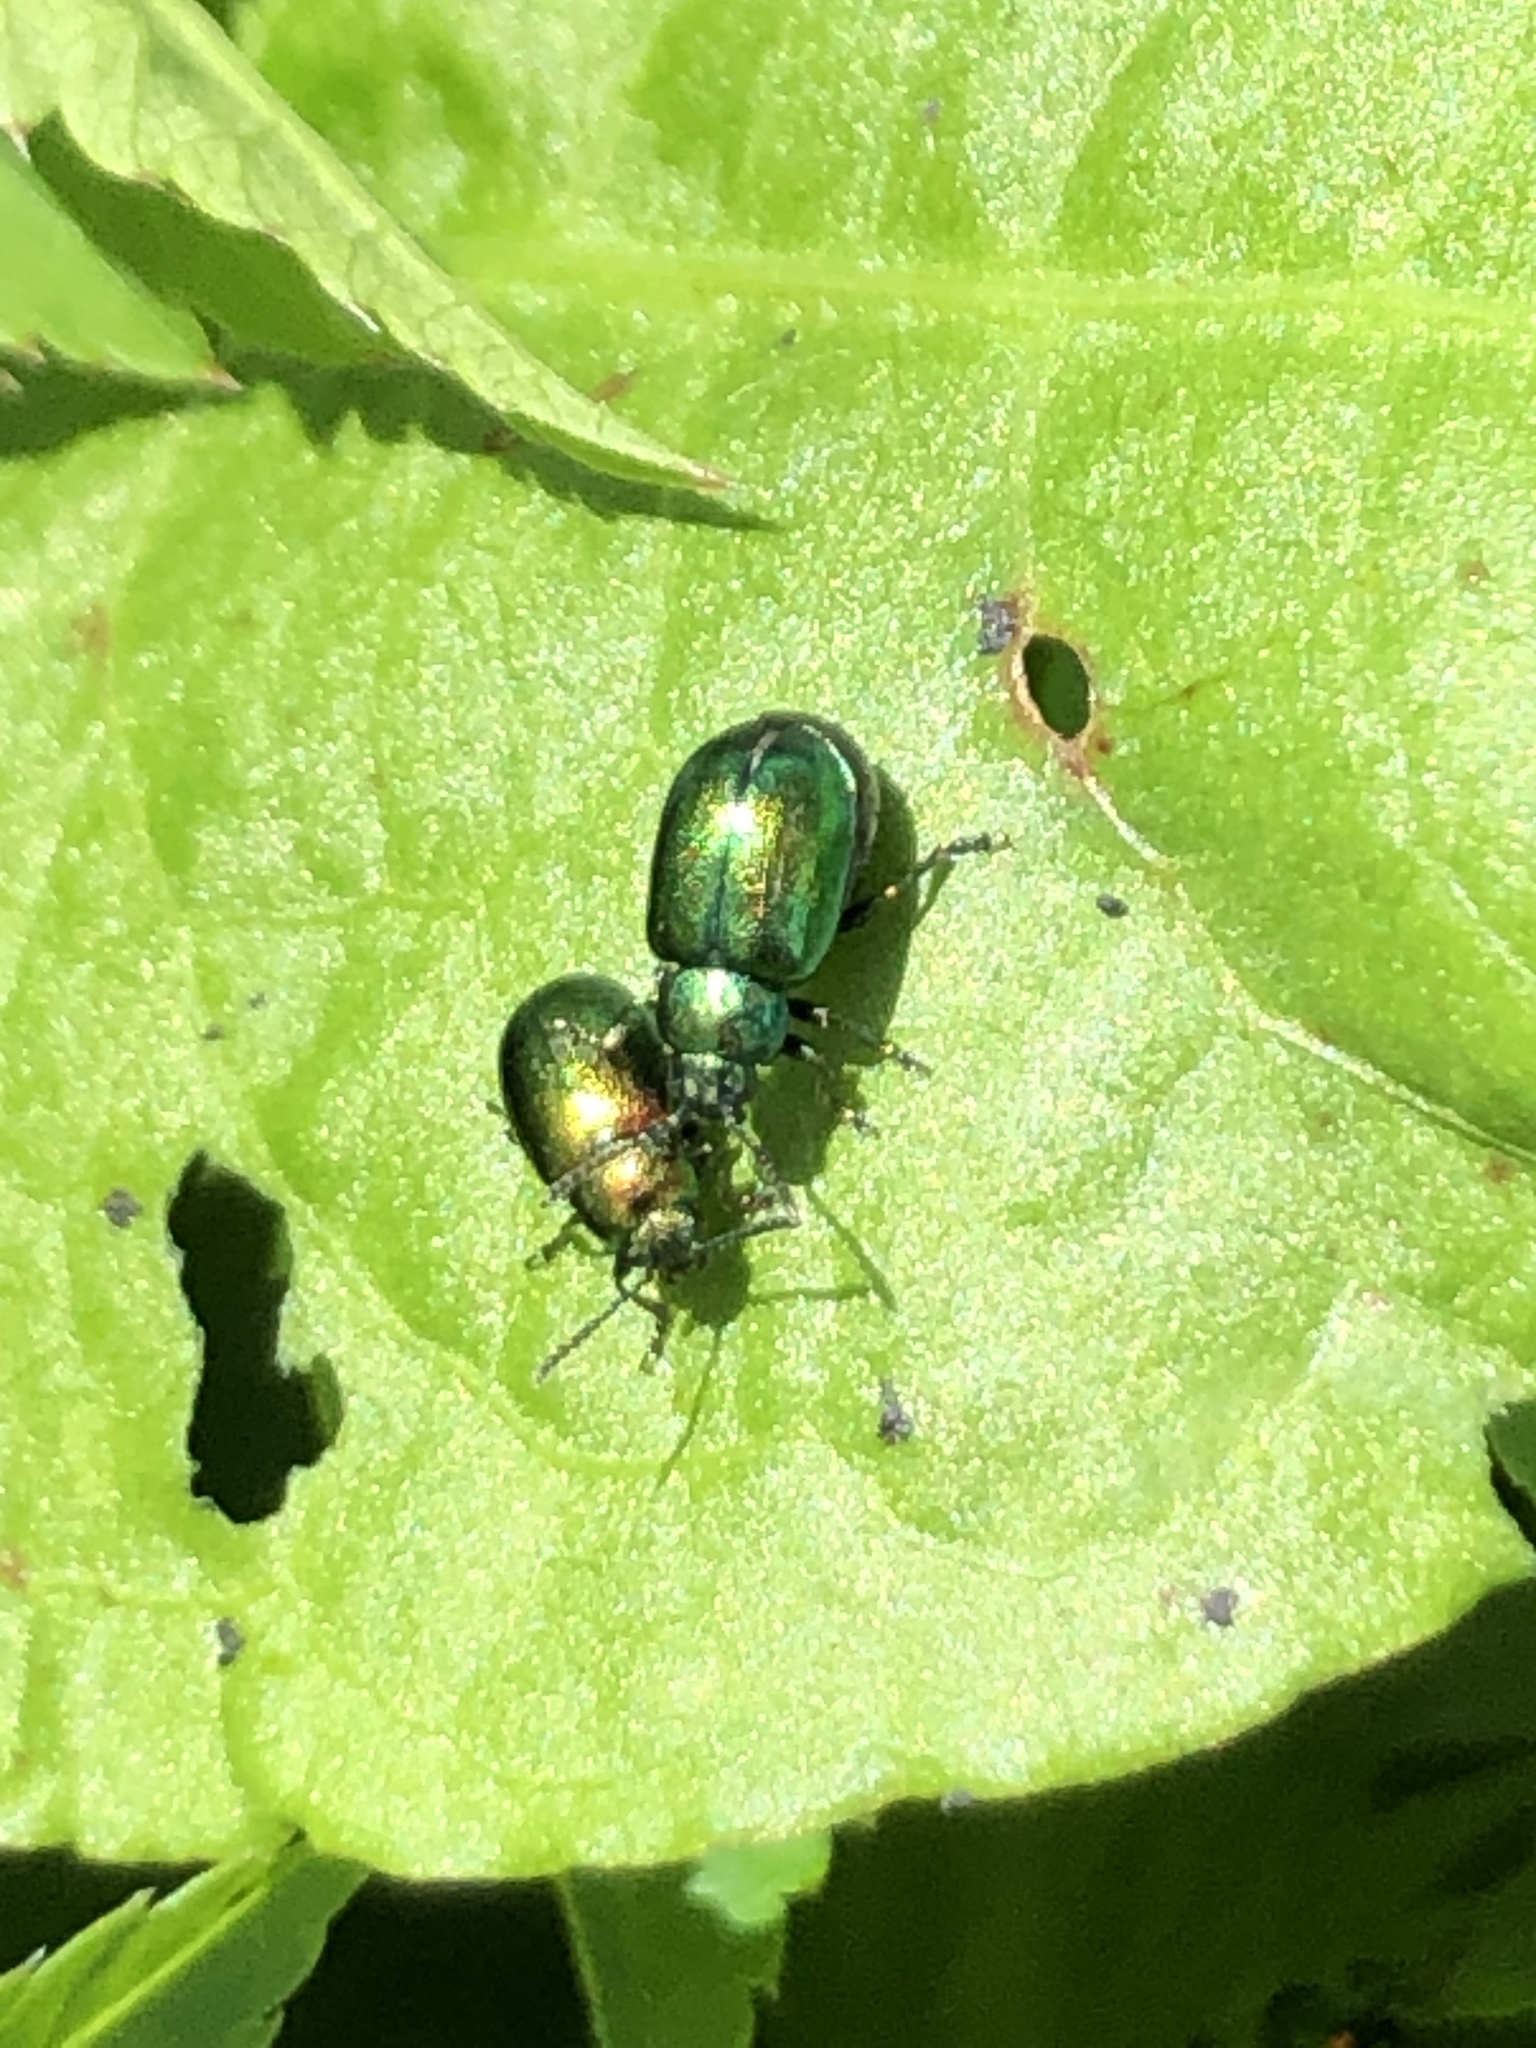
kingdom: Animalia
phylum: Arthropoda
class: Insecta
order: Coleoptera
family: Chrysomelidae
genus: Gastrophysa
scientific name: Gastrophysa viridula
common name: Green dock beetle
